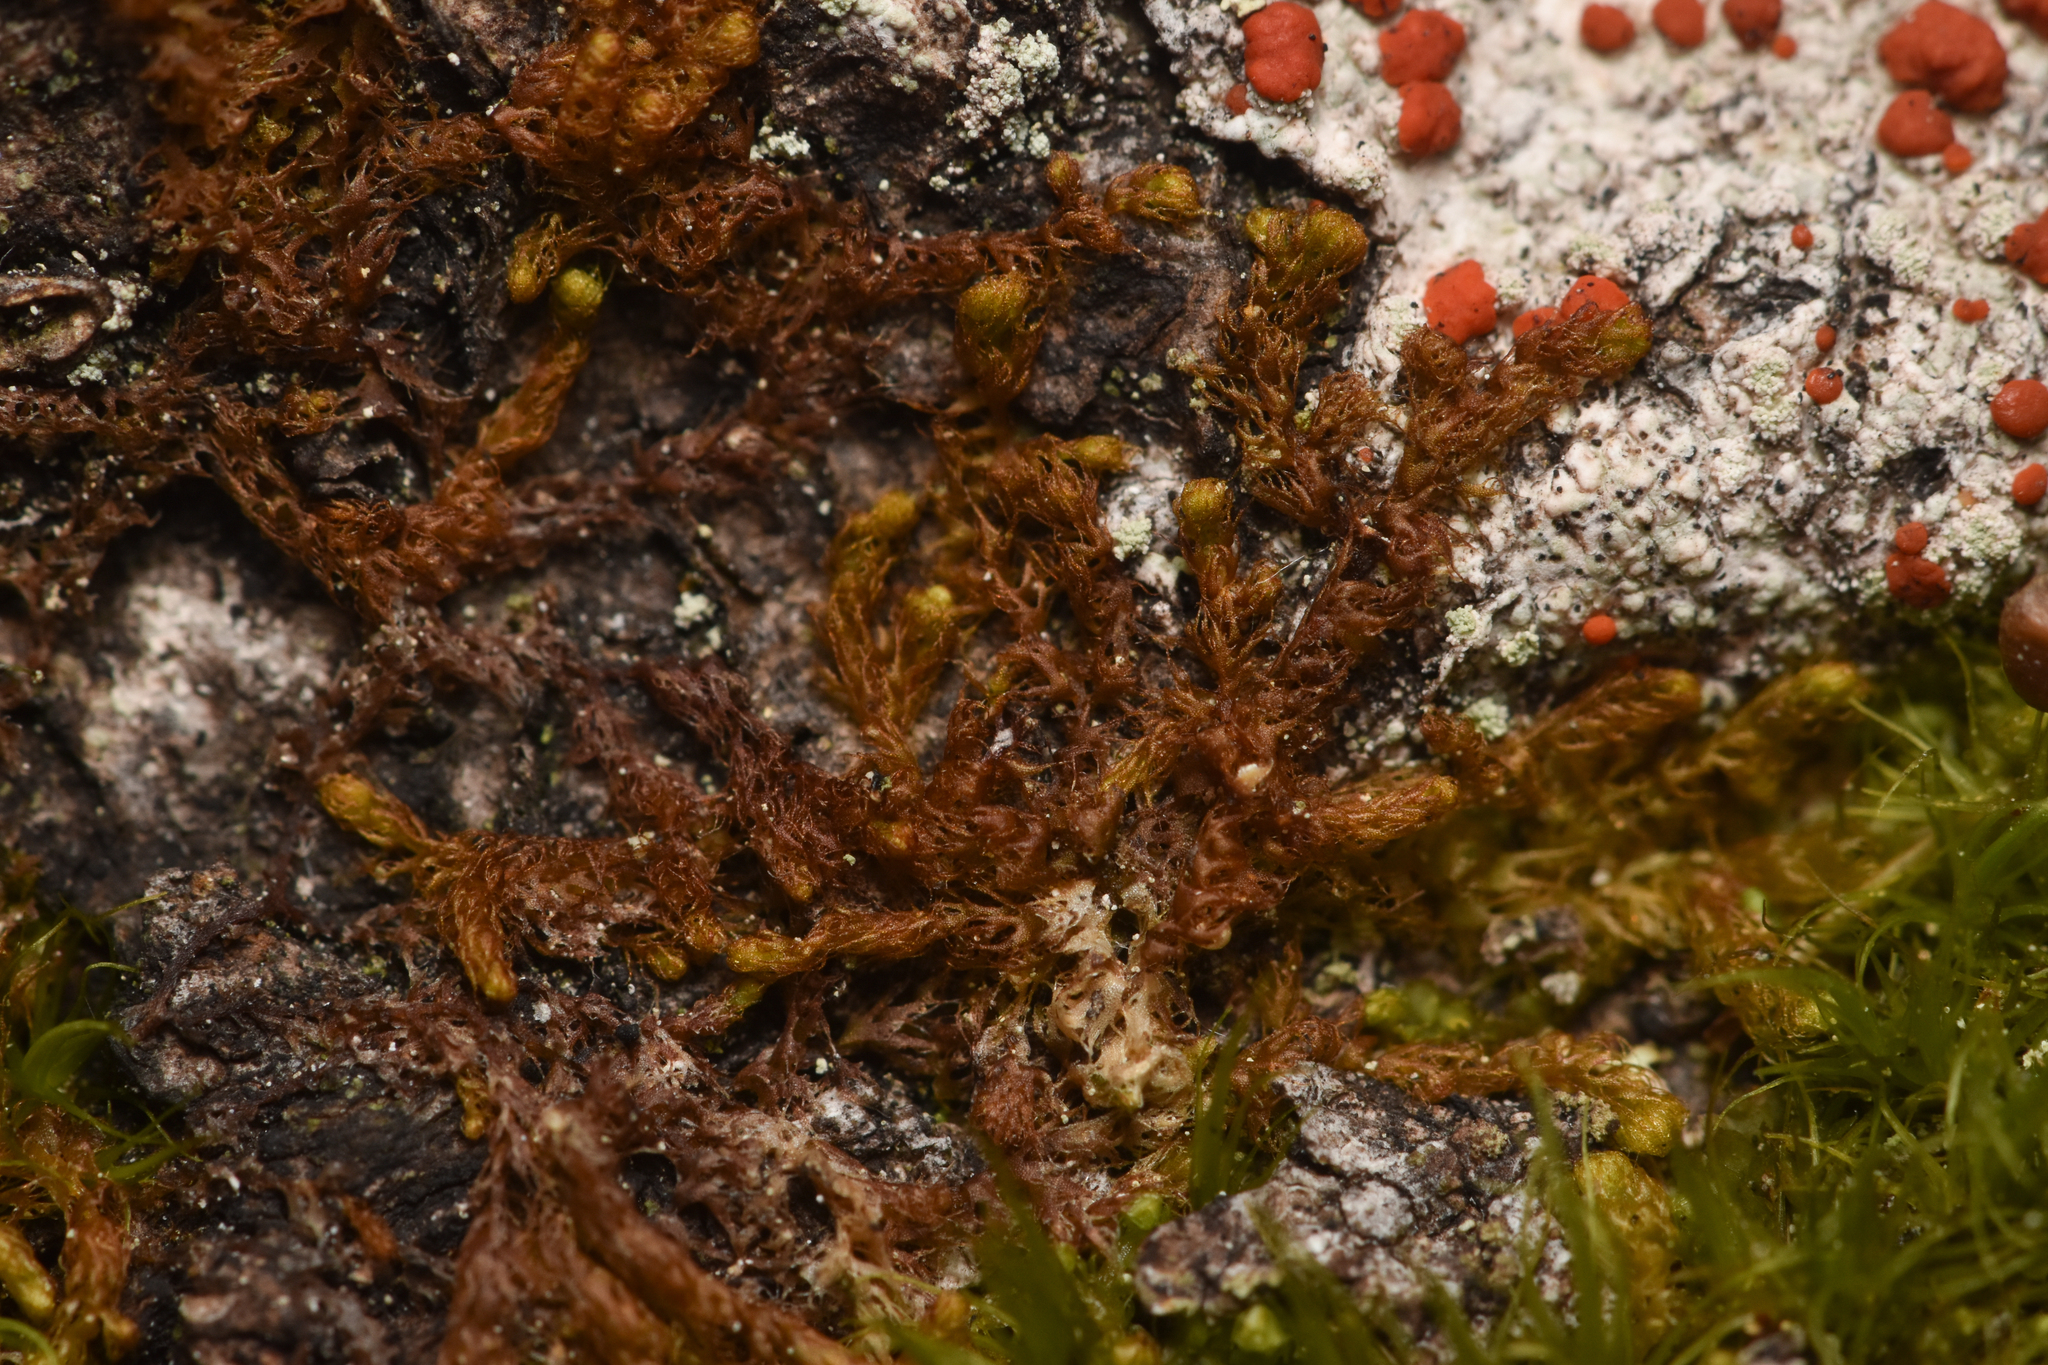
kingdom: Plantae
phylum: Marchantiophyta
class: Jungermanniopsida
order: Ptilidiales
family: Ptilidiaceae
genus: Ptilidium
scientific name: Ptilidium pulcherrimum
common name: Tree fringewort
